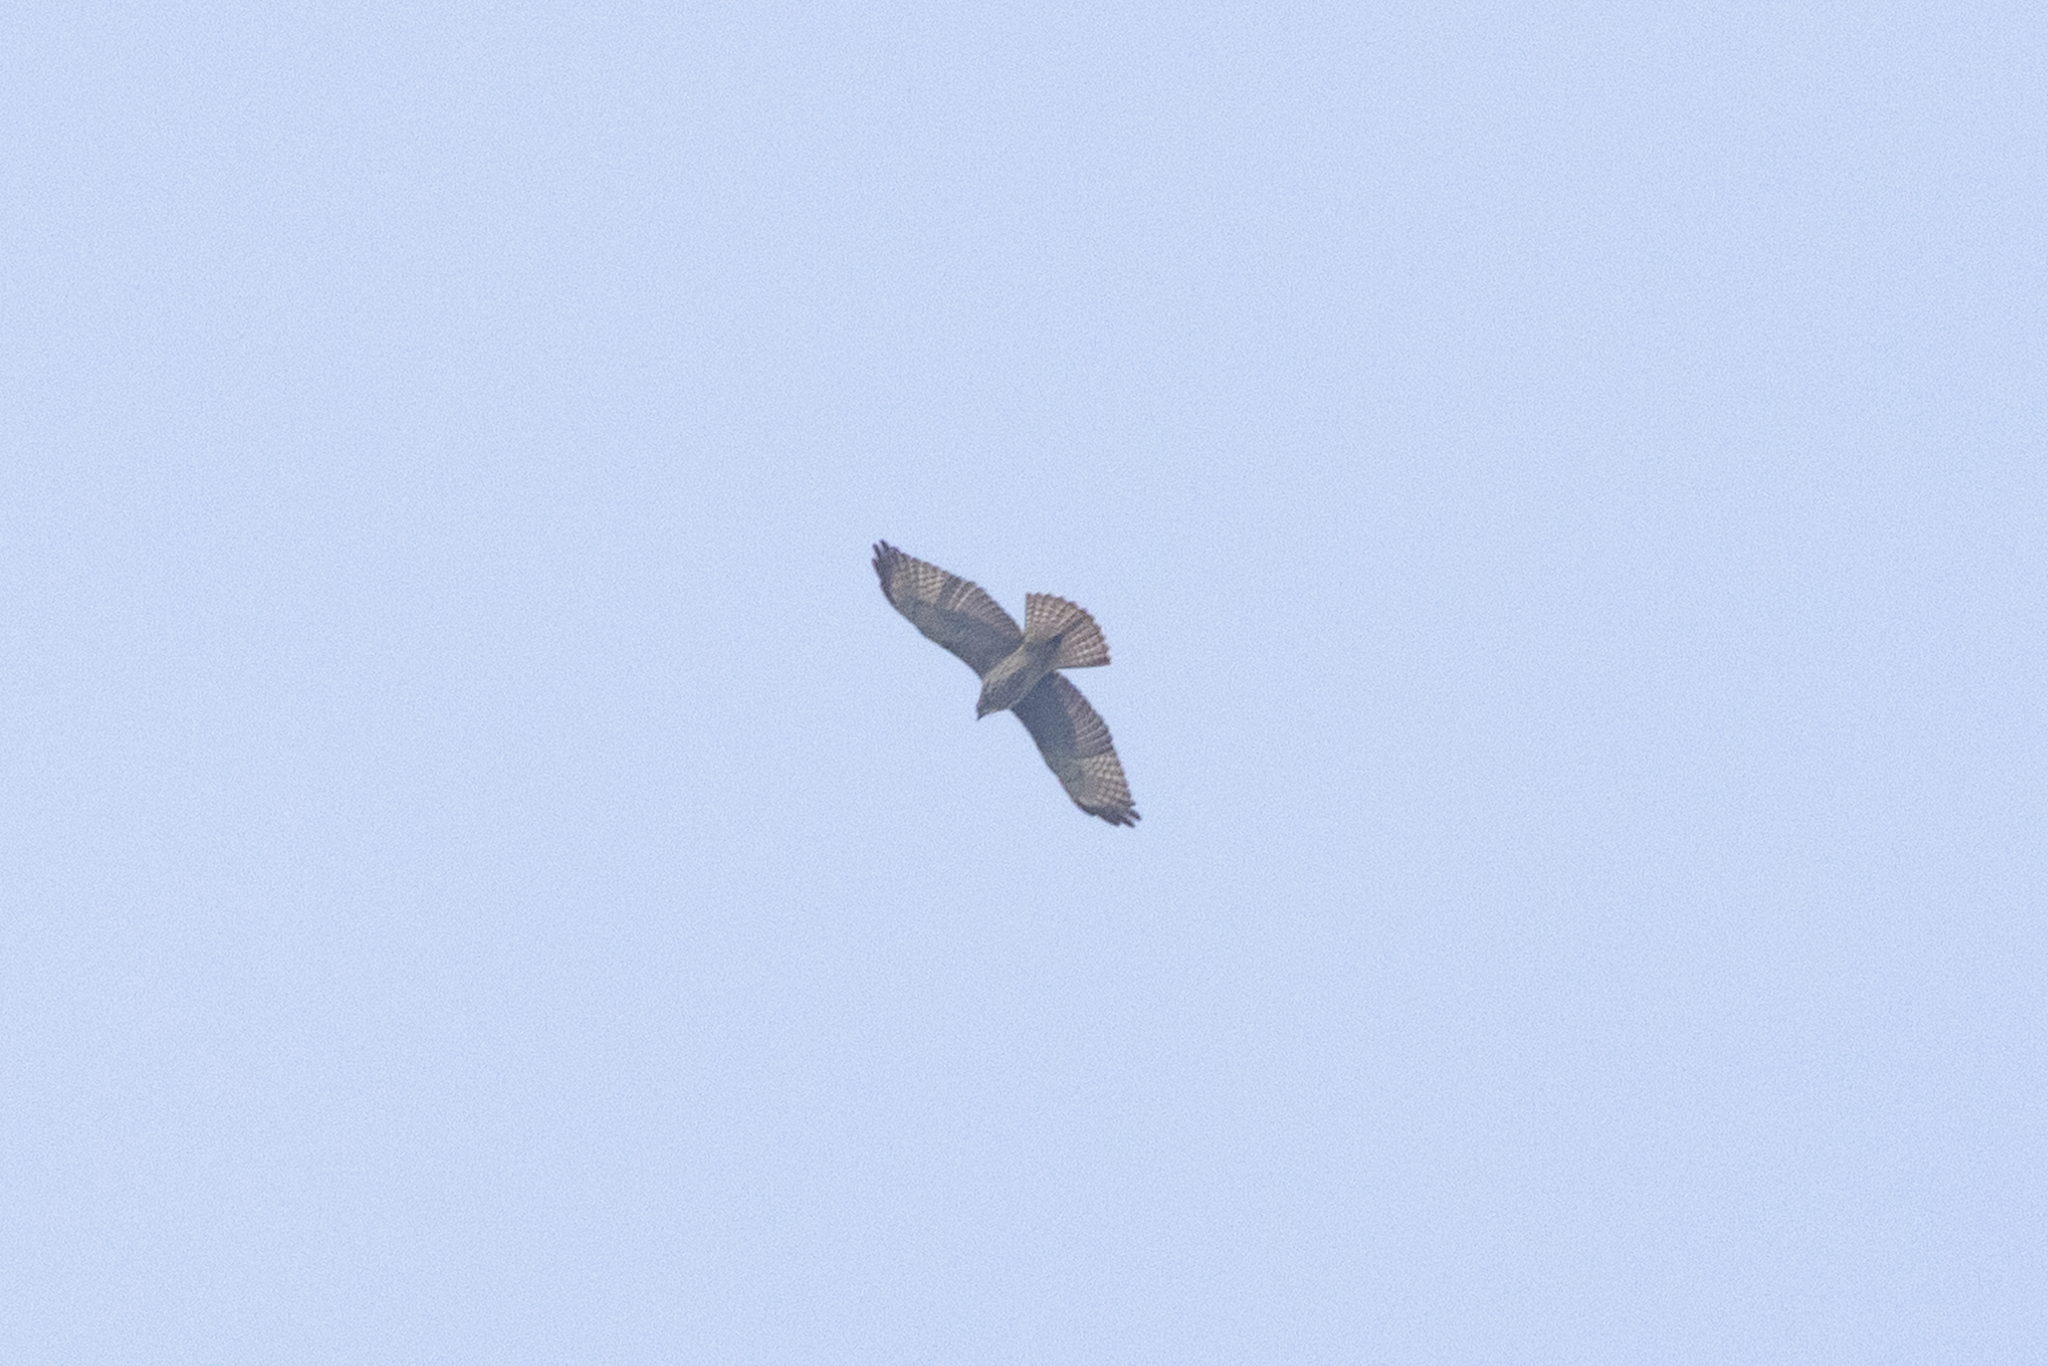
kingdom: Animalia
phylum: Chordata
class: Aves
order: Accipitriformes
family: Accipitridae
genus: Buteo
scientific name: Buteo platypterus
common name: Broad-winged hawk
